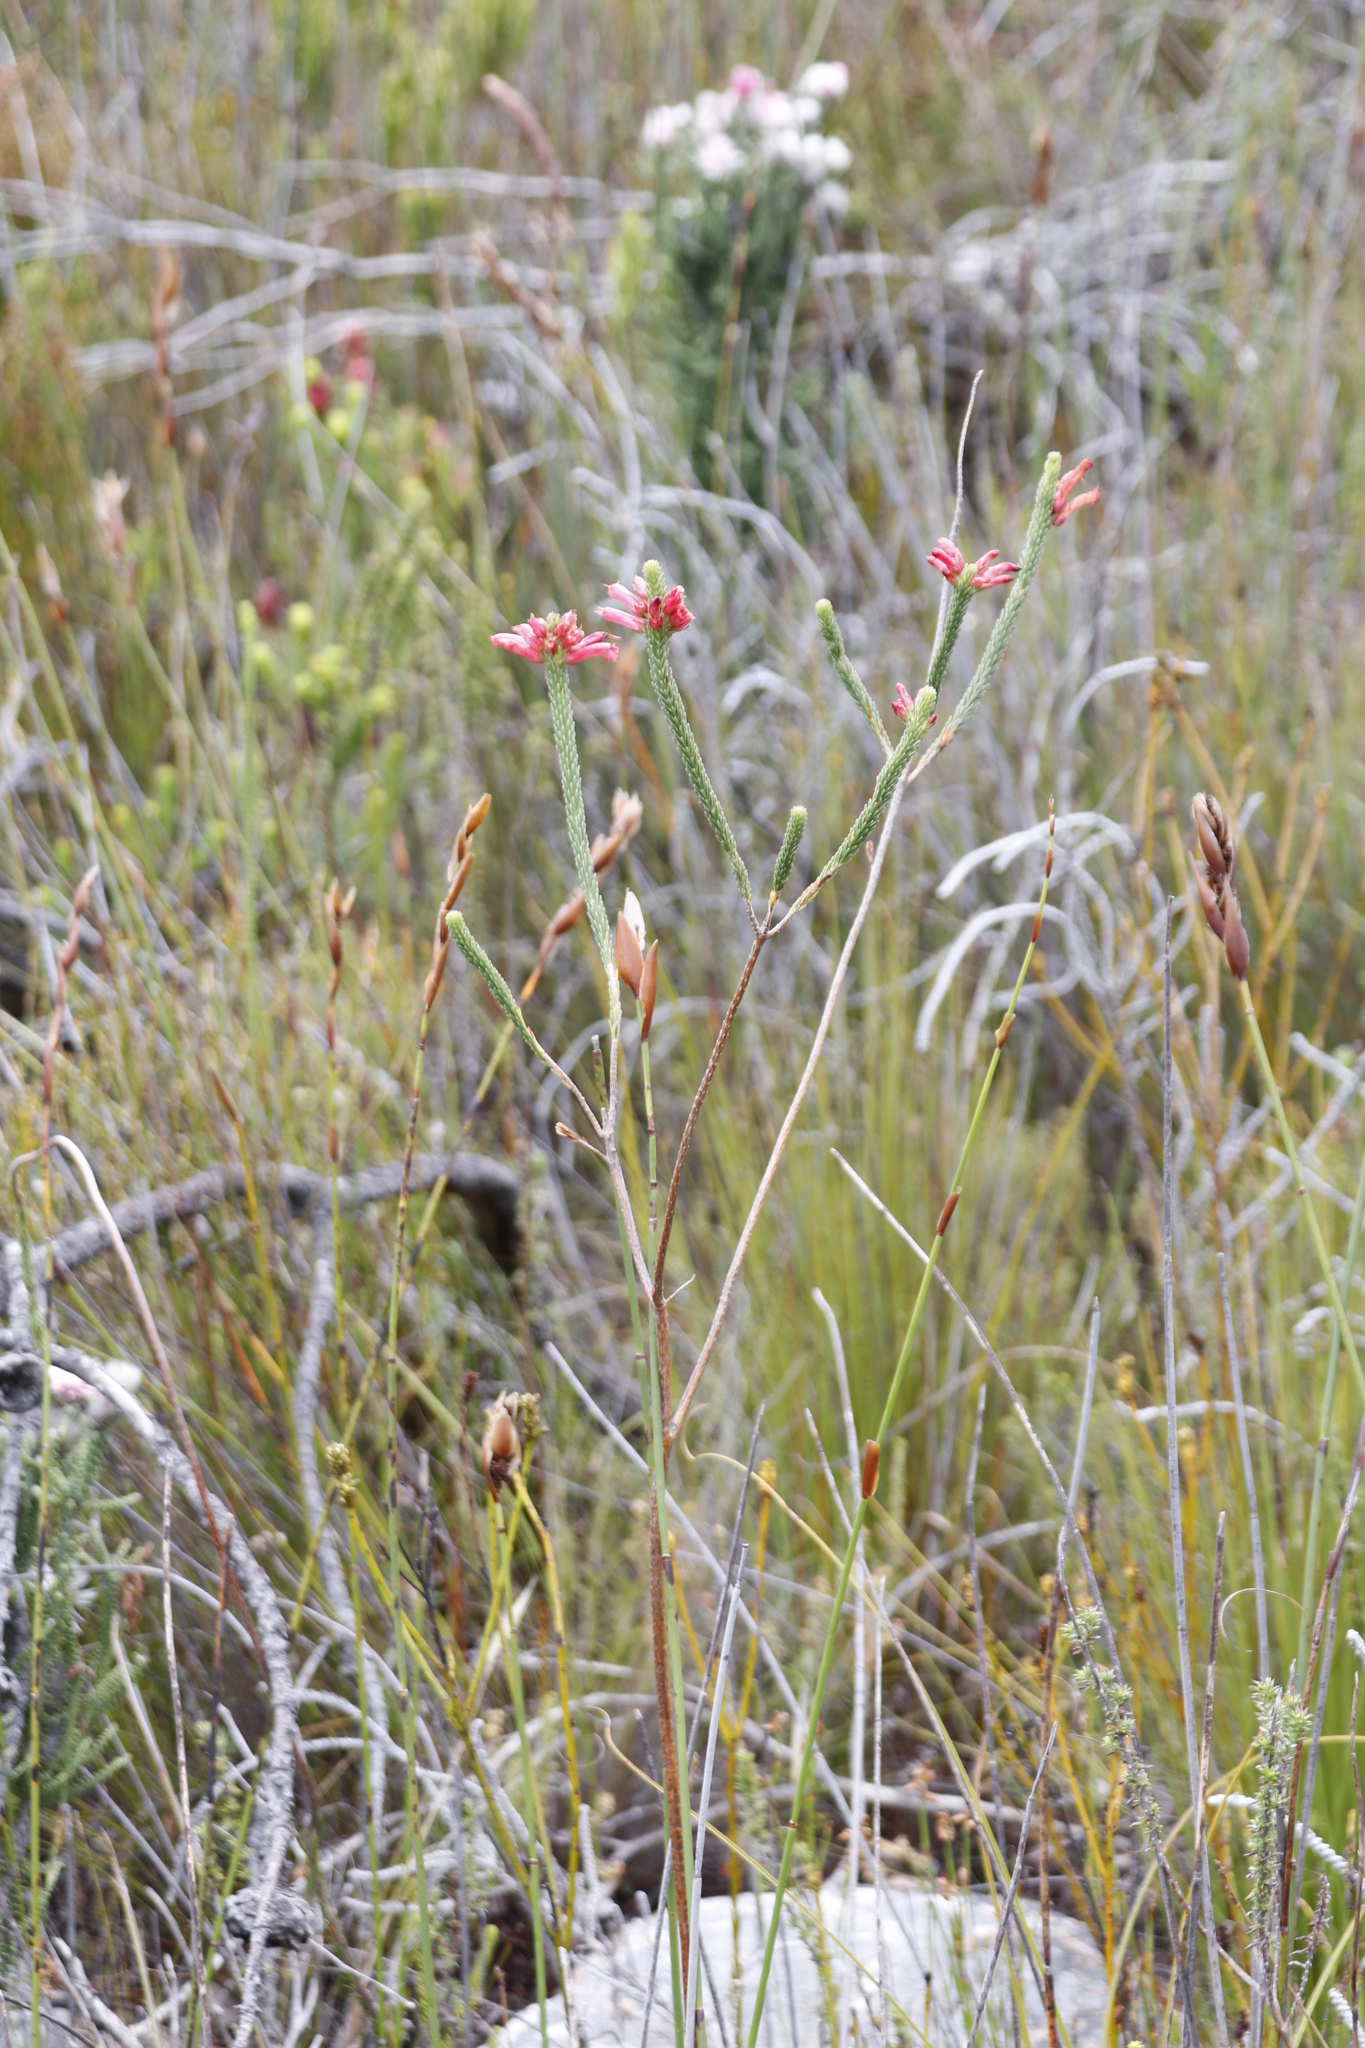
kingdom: Plantae
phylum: Tracheophyta
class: Magnoliopsida
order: Ericales
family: Ericaceae
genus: Erica
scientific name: Erica regia
